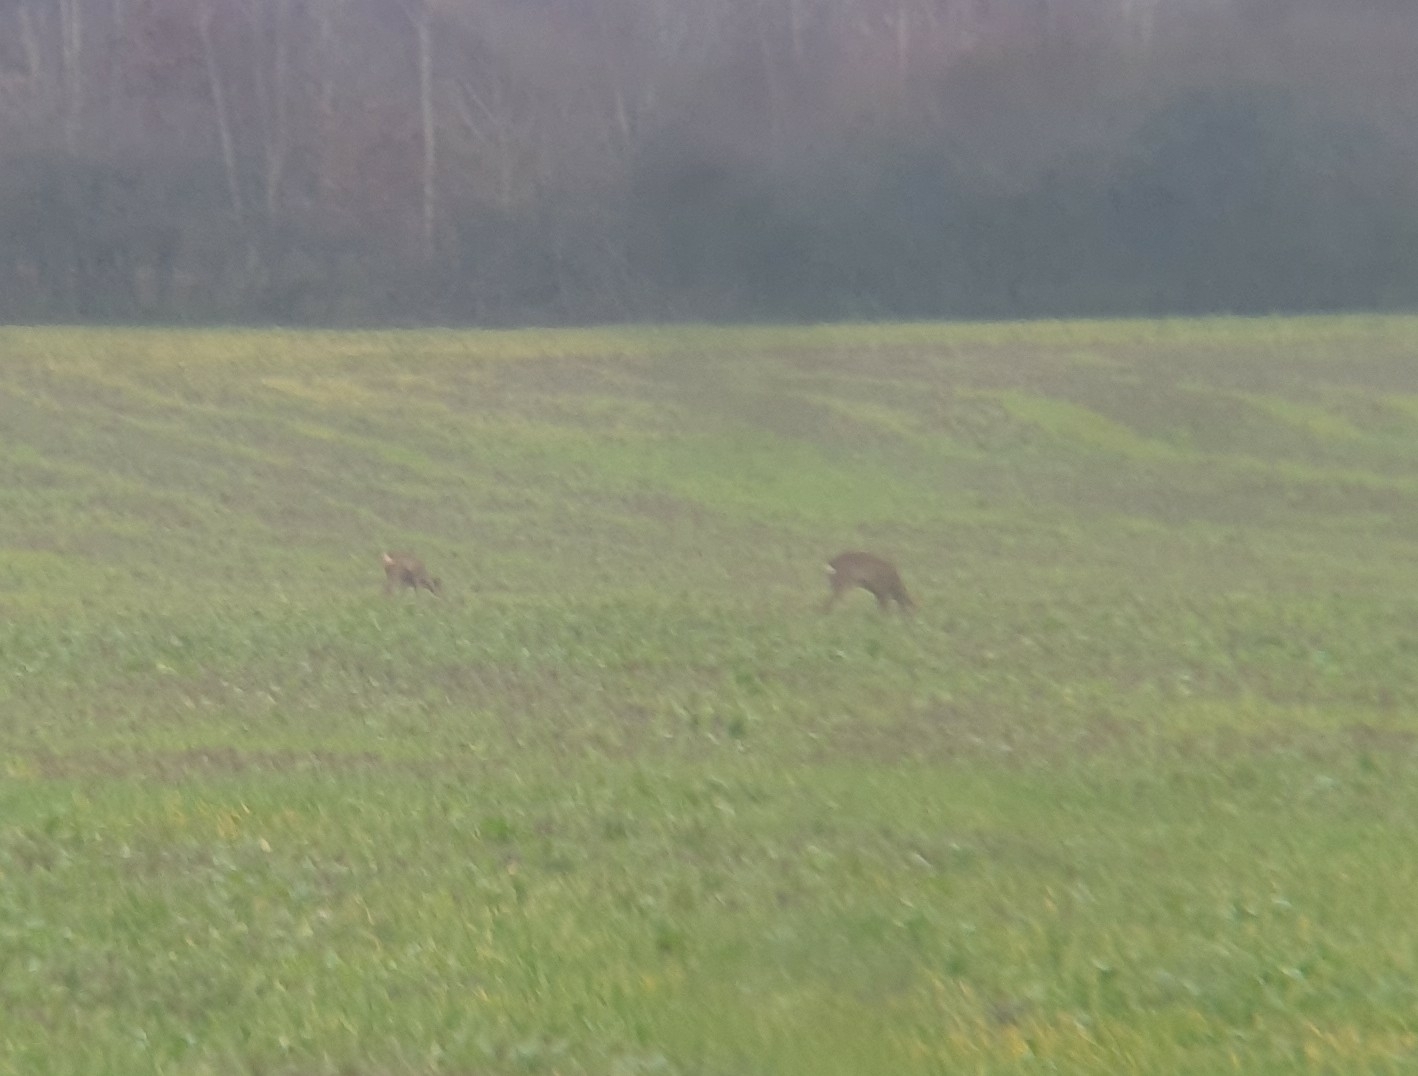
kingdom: Animalia
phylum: Chordata
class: Mammalia
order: Artiodactyla
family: Cervidae
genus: Capreolus
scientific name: Capreolus capreolus
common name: Western roe deer
